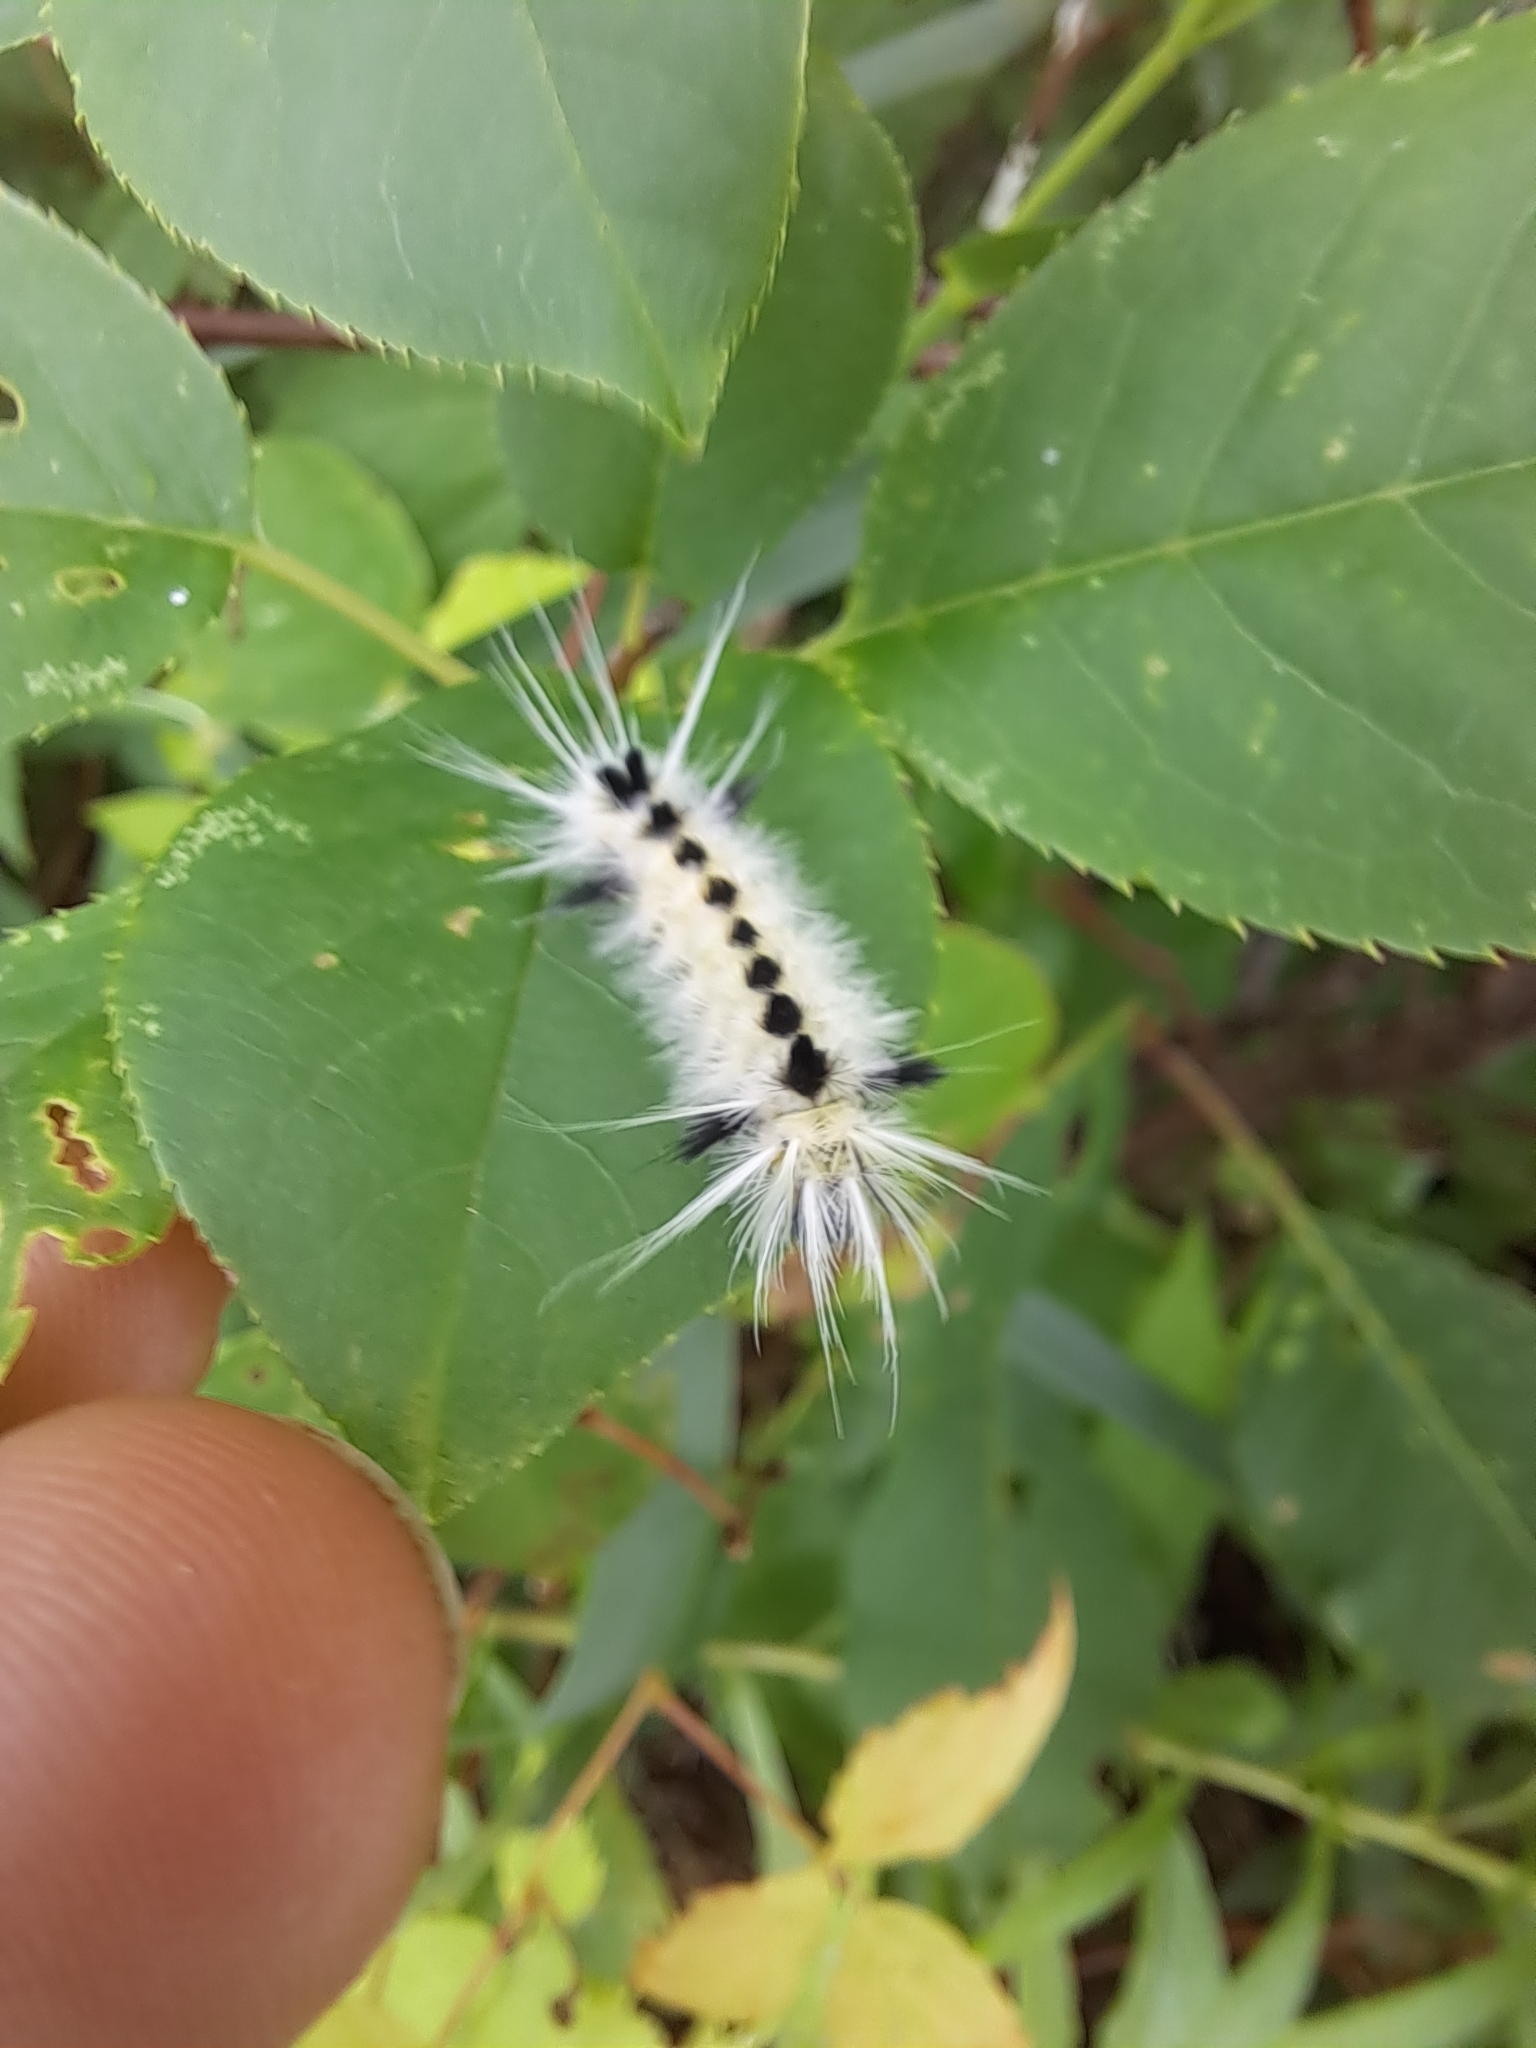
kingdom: Animalia
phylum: Arthropoda
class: Insecta
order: Lepidoptera
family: Erebidae
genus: Lophocampa
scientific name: Lophocampa maculata
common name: Spotted tussock moth
